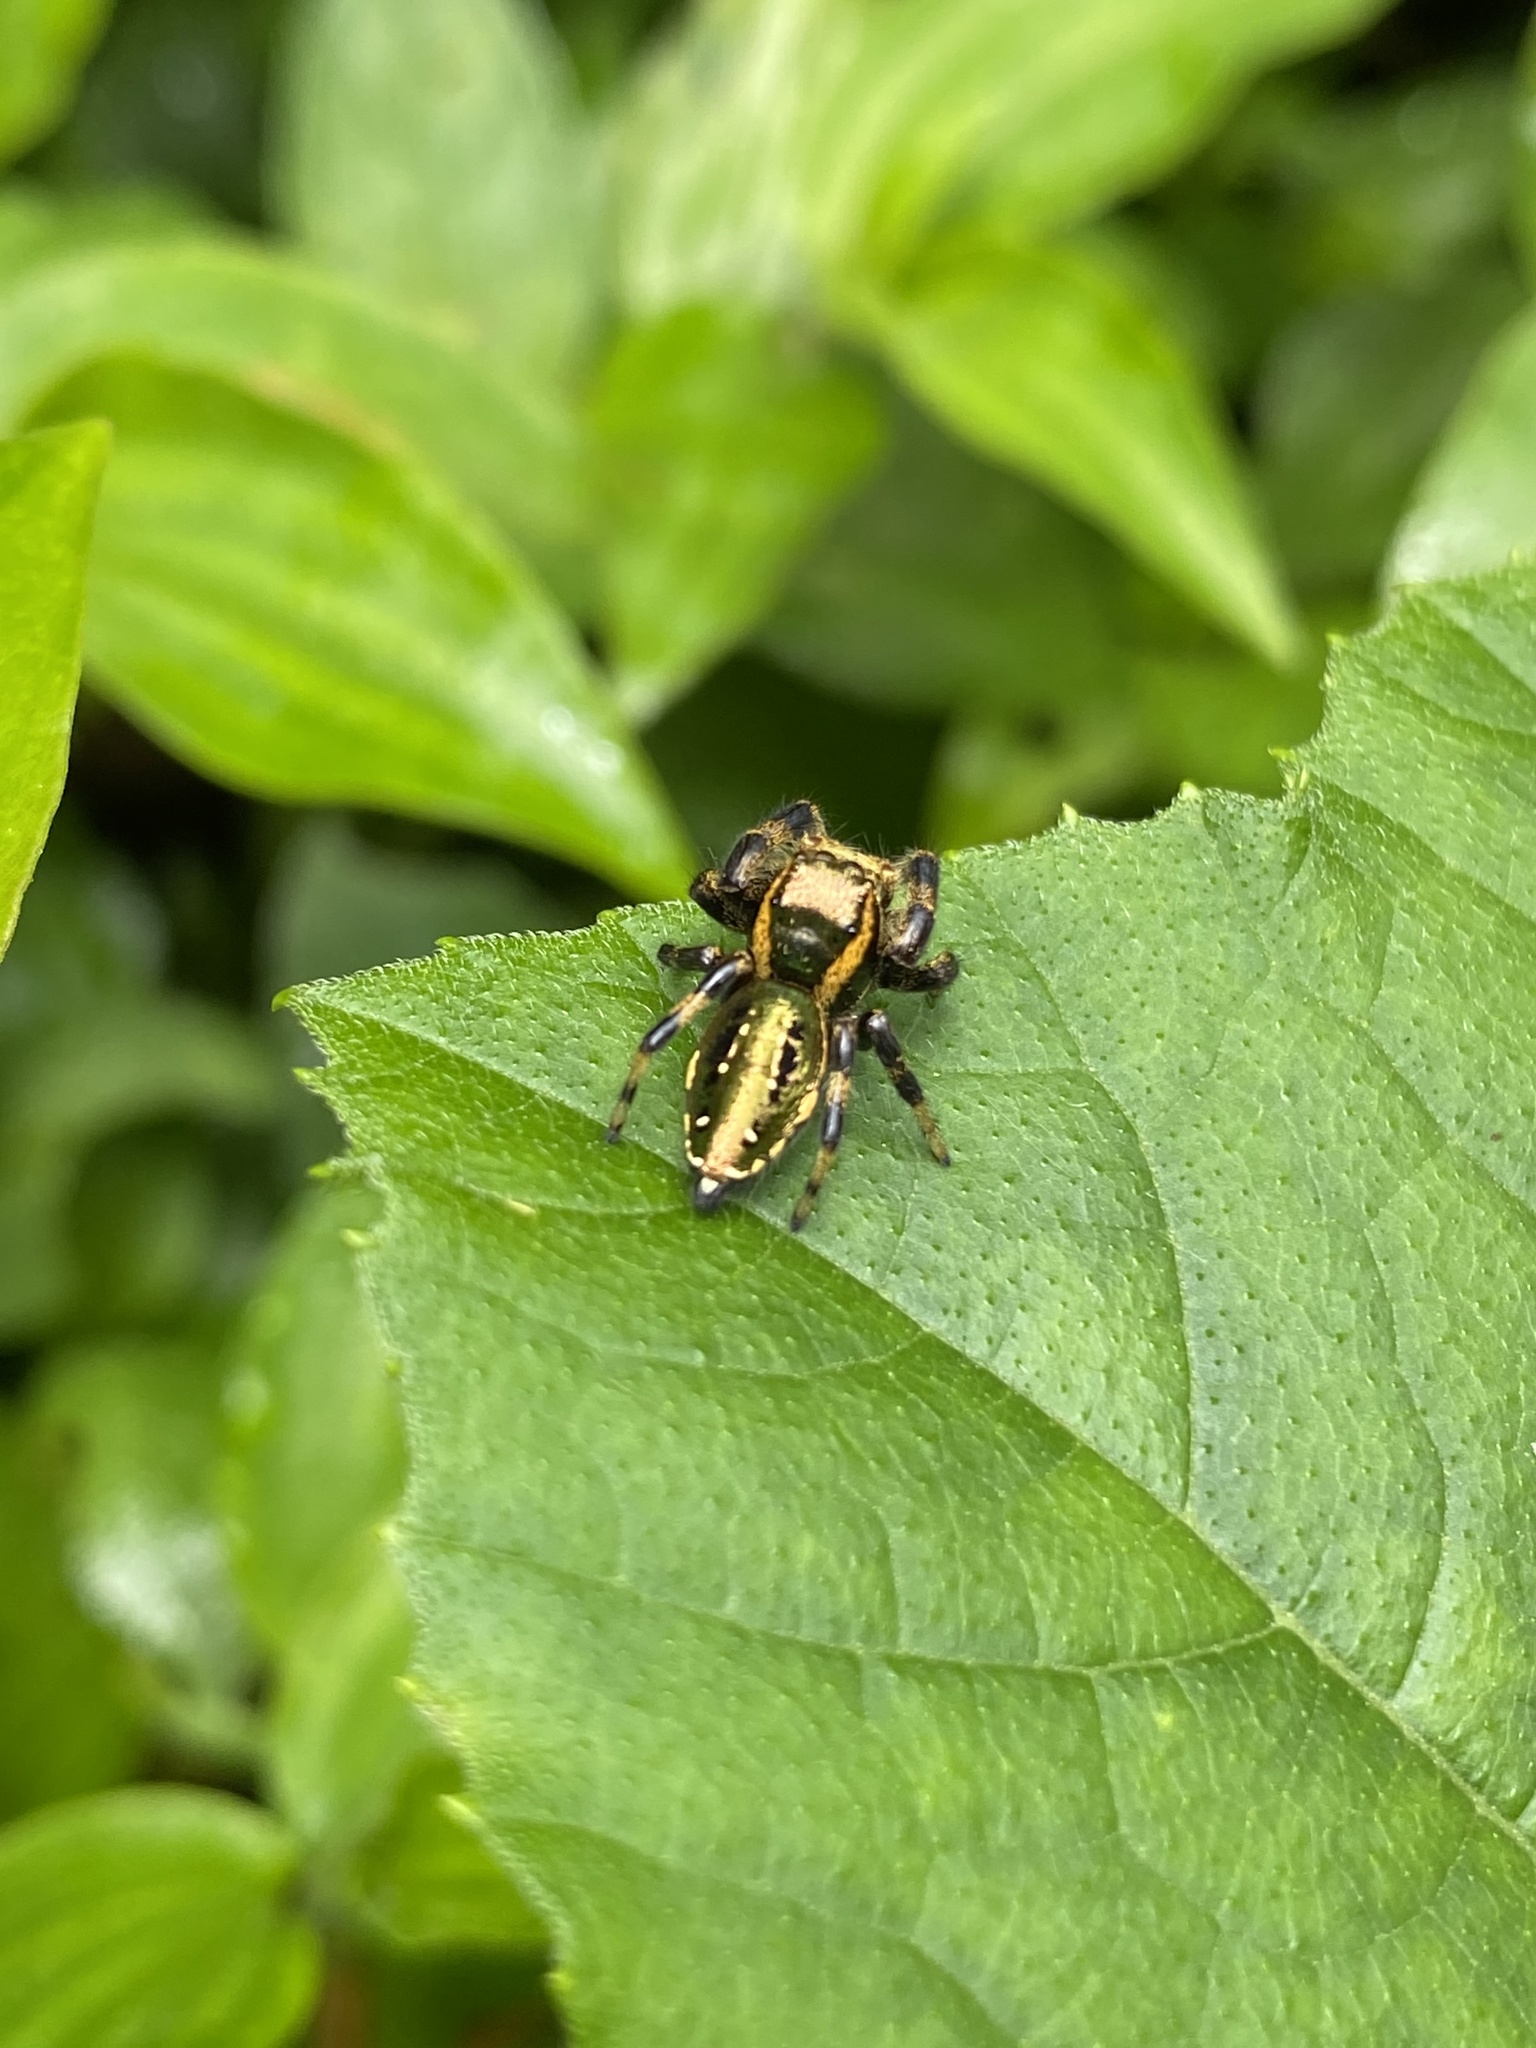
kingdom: Animalia
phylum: Arthropoda
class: Arachnida
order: Araneae
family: Salticidae
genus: Paraphidippus
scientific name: Paraphidippus aurantius
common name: Jumping spiders
